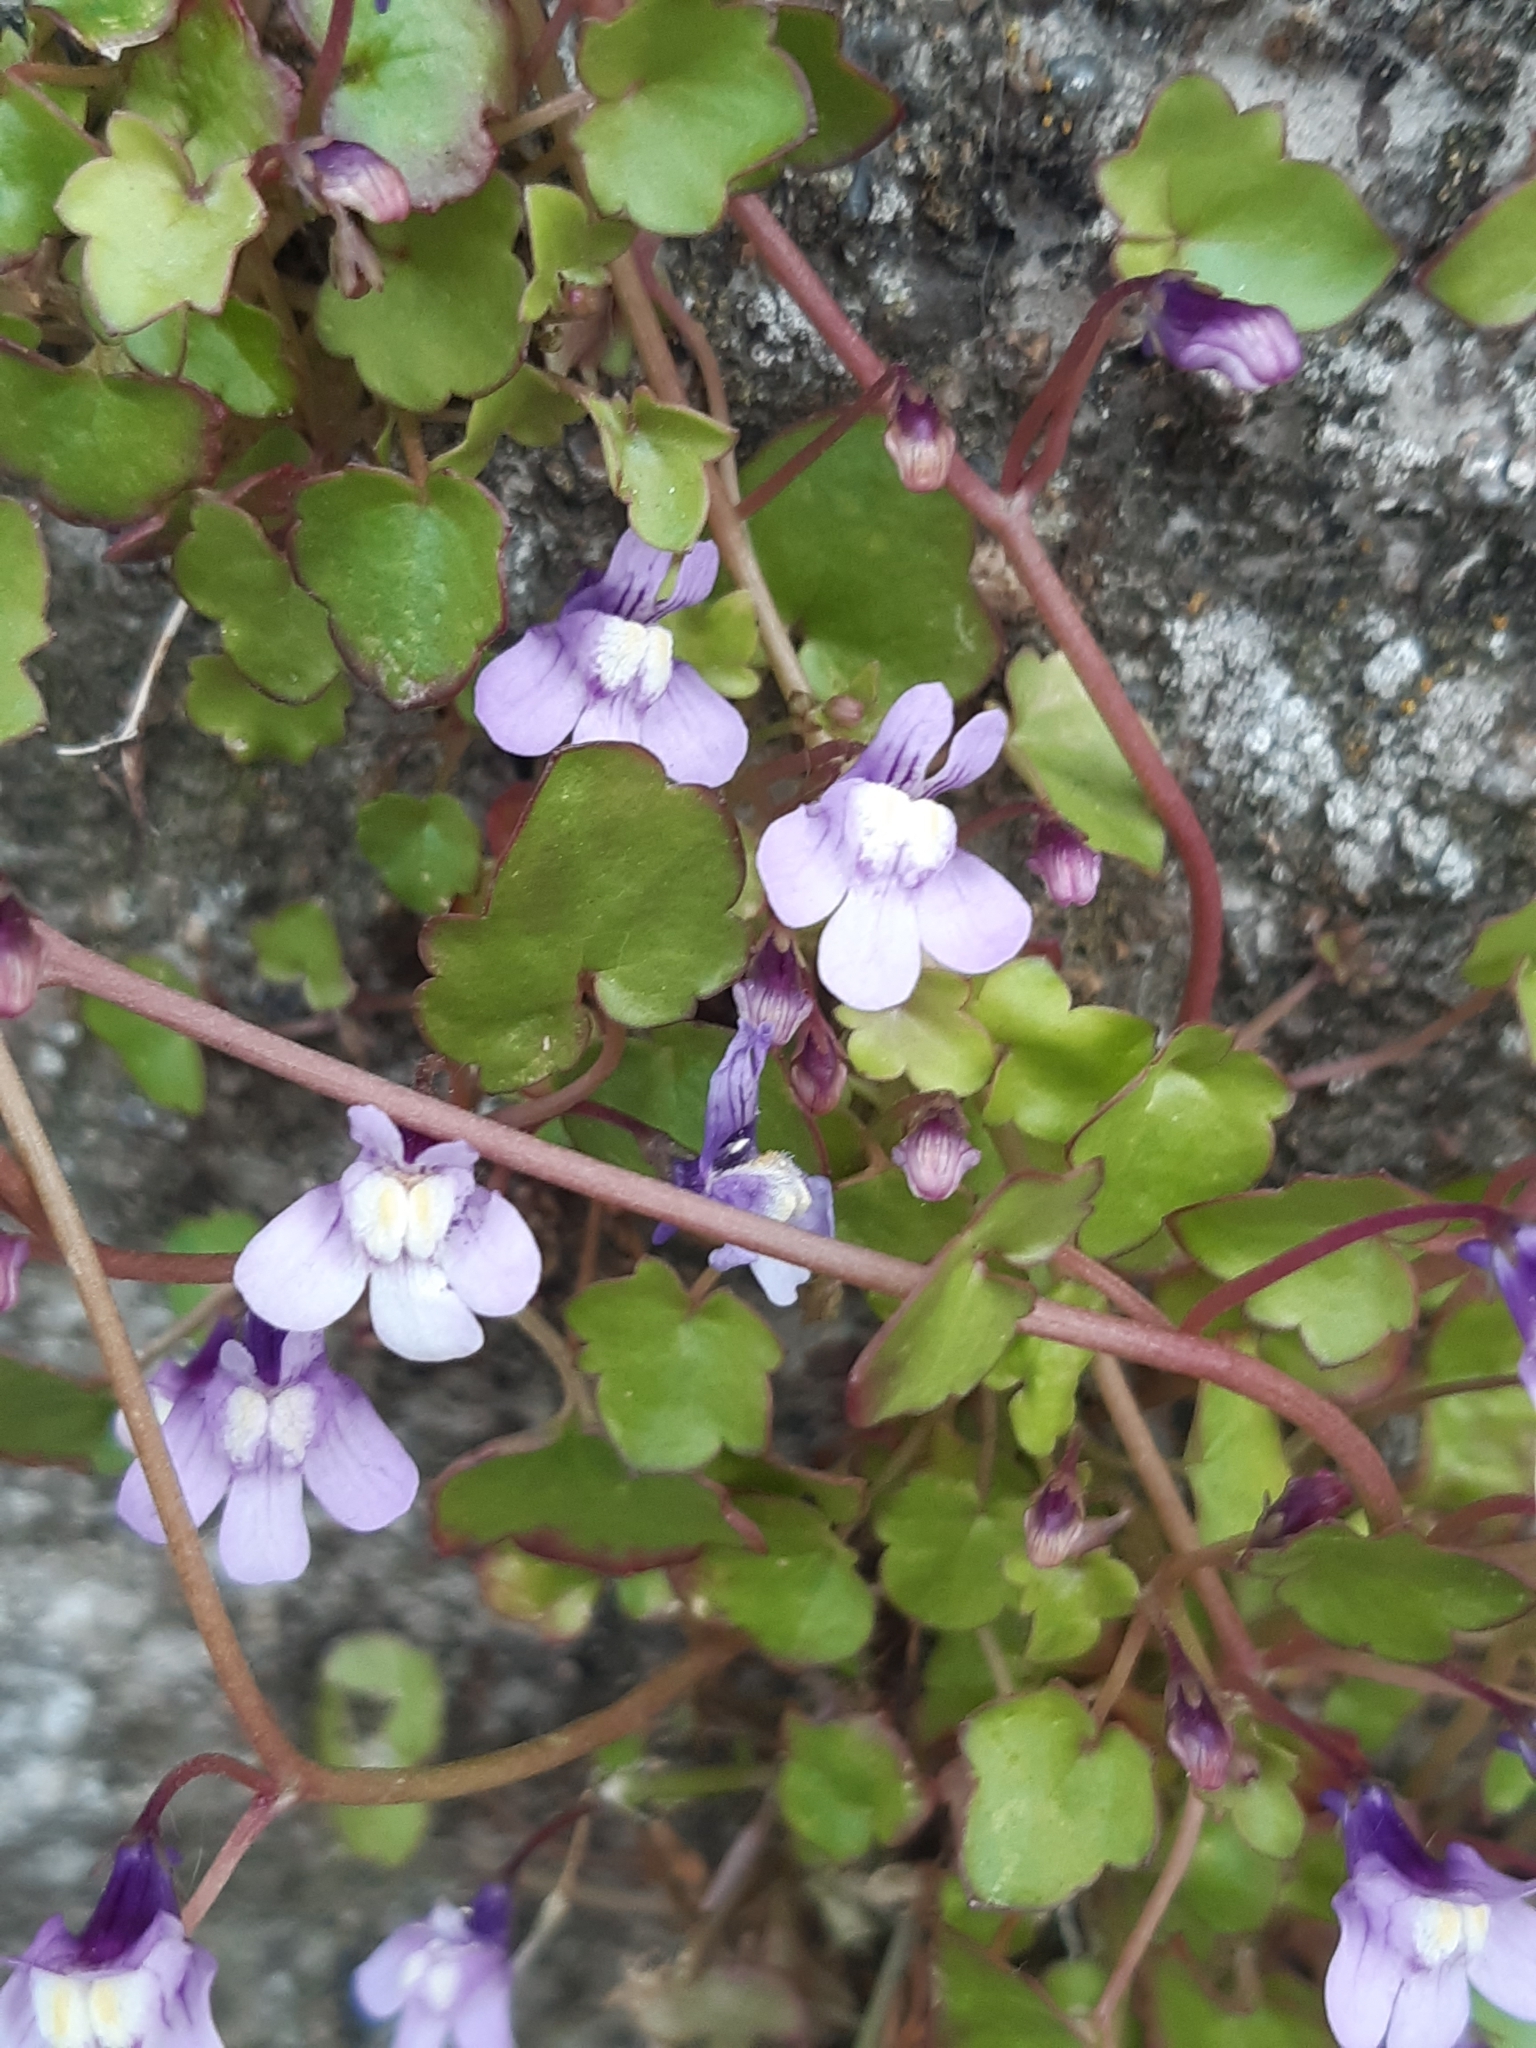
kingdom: Plantae
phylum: Tracheophyta
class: Magnoliopsida
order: Lamiales
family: Plantaginaceae
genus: Cymbalaria
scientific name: Cymbalaria muralis
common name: Ivy-leaved toadflax
